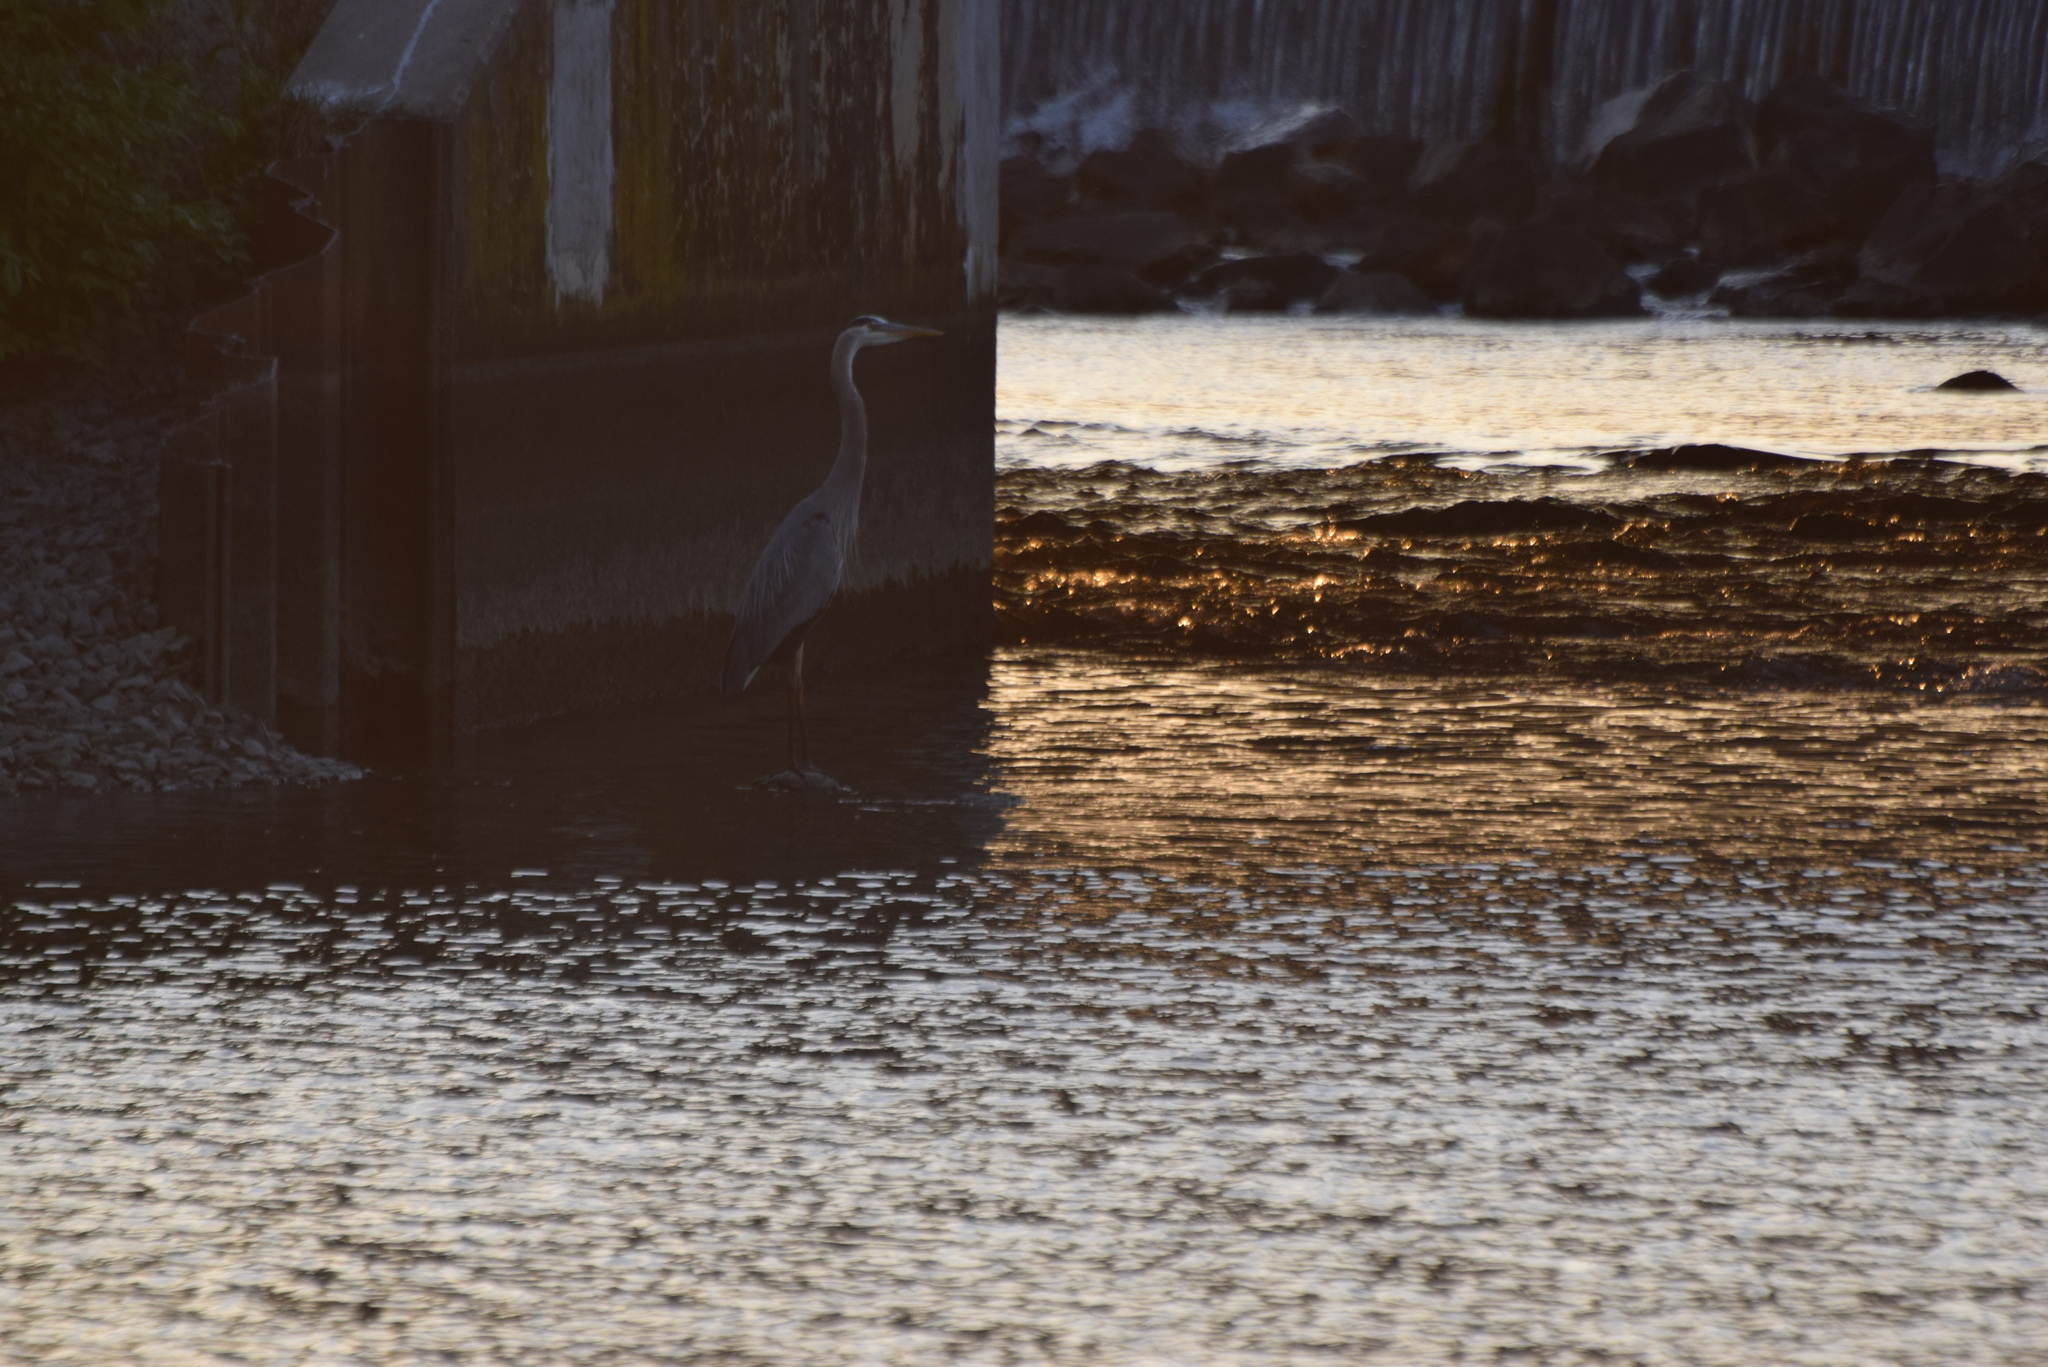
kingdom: Animalia
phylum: Chordata
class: Aves
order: Pelecaniformes
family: Ardeidae
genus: Ardea
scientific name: Ardea herodias
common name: Great blue heron
